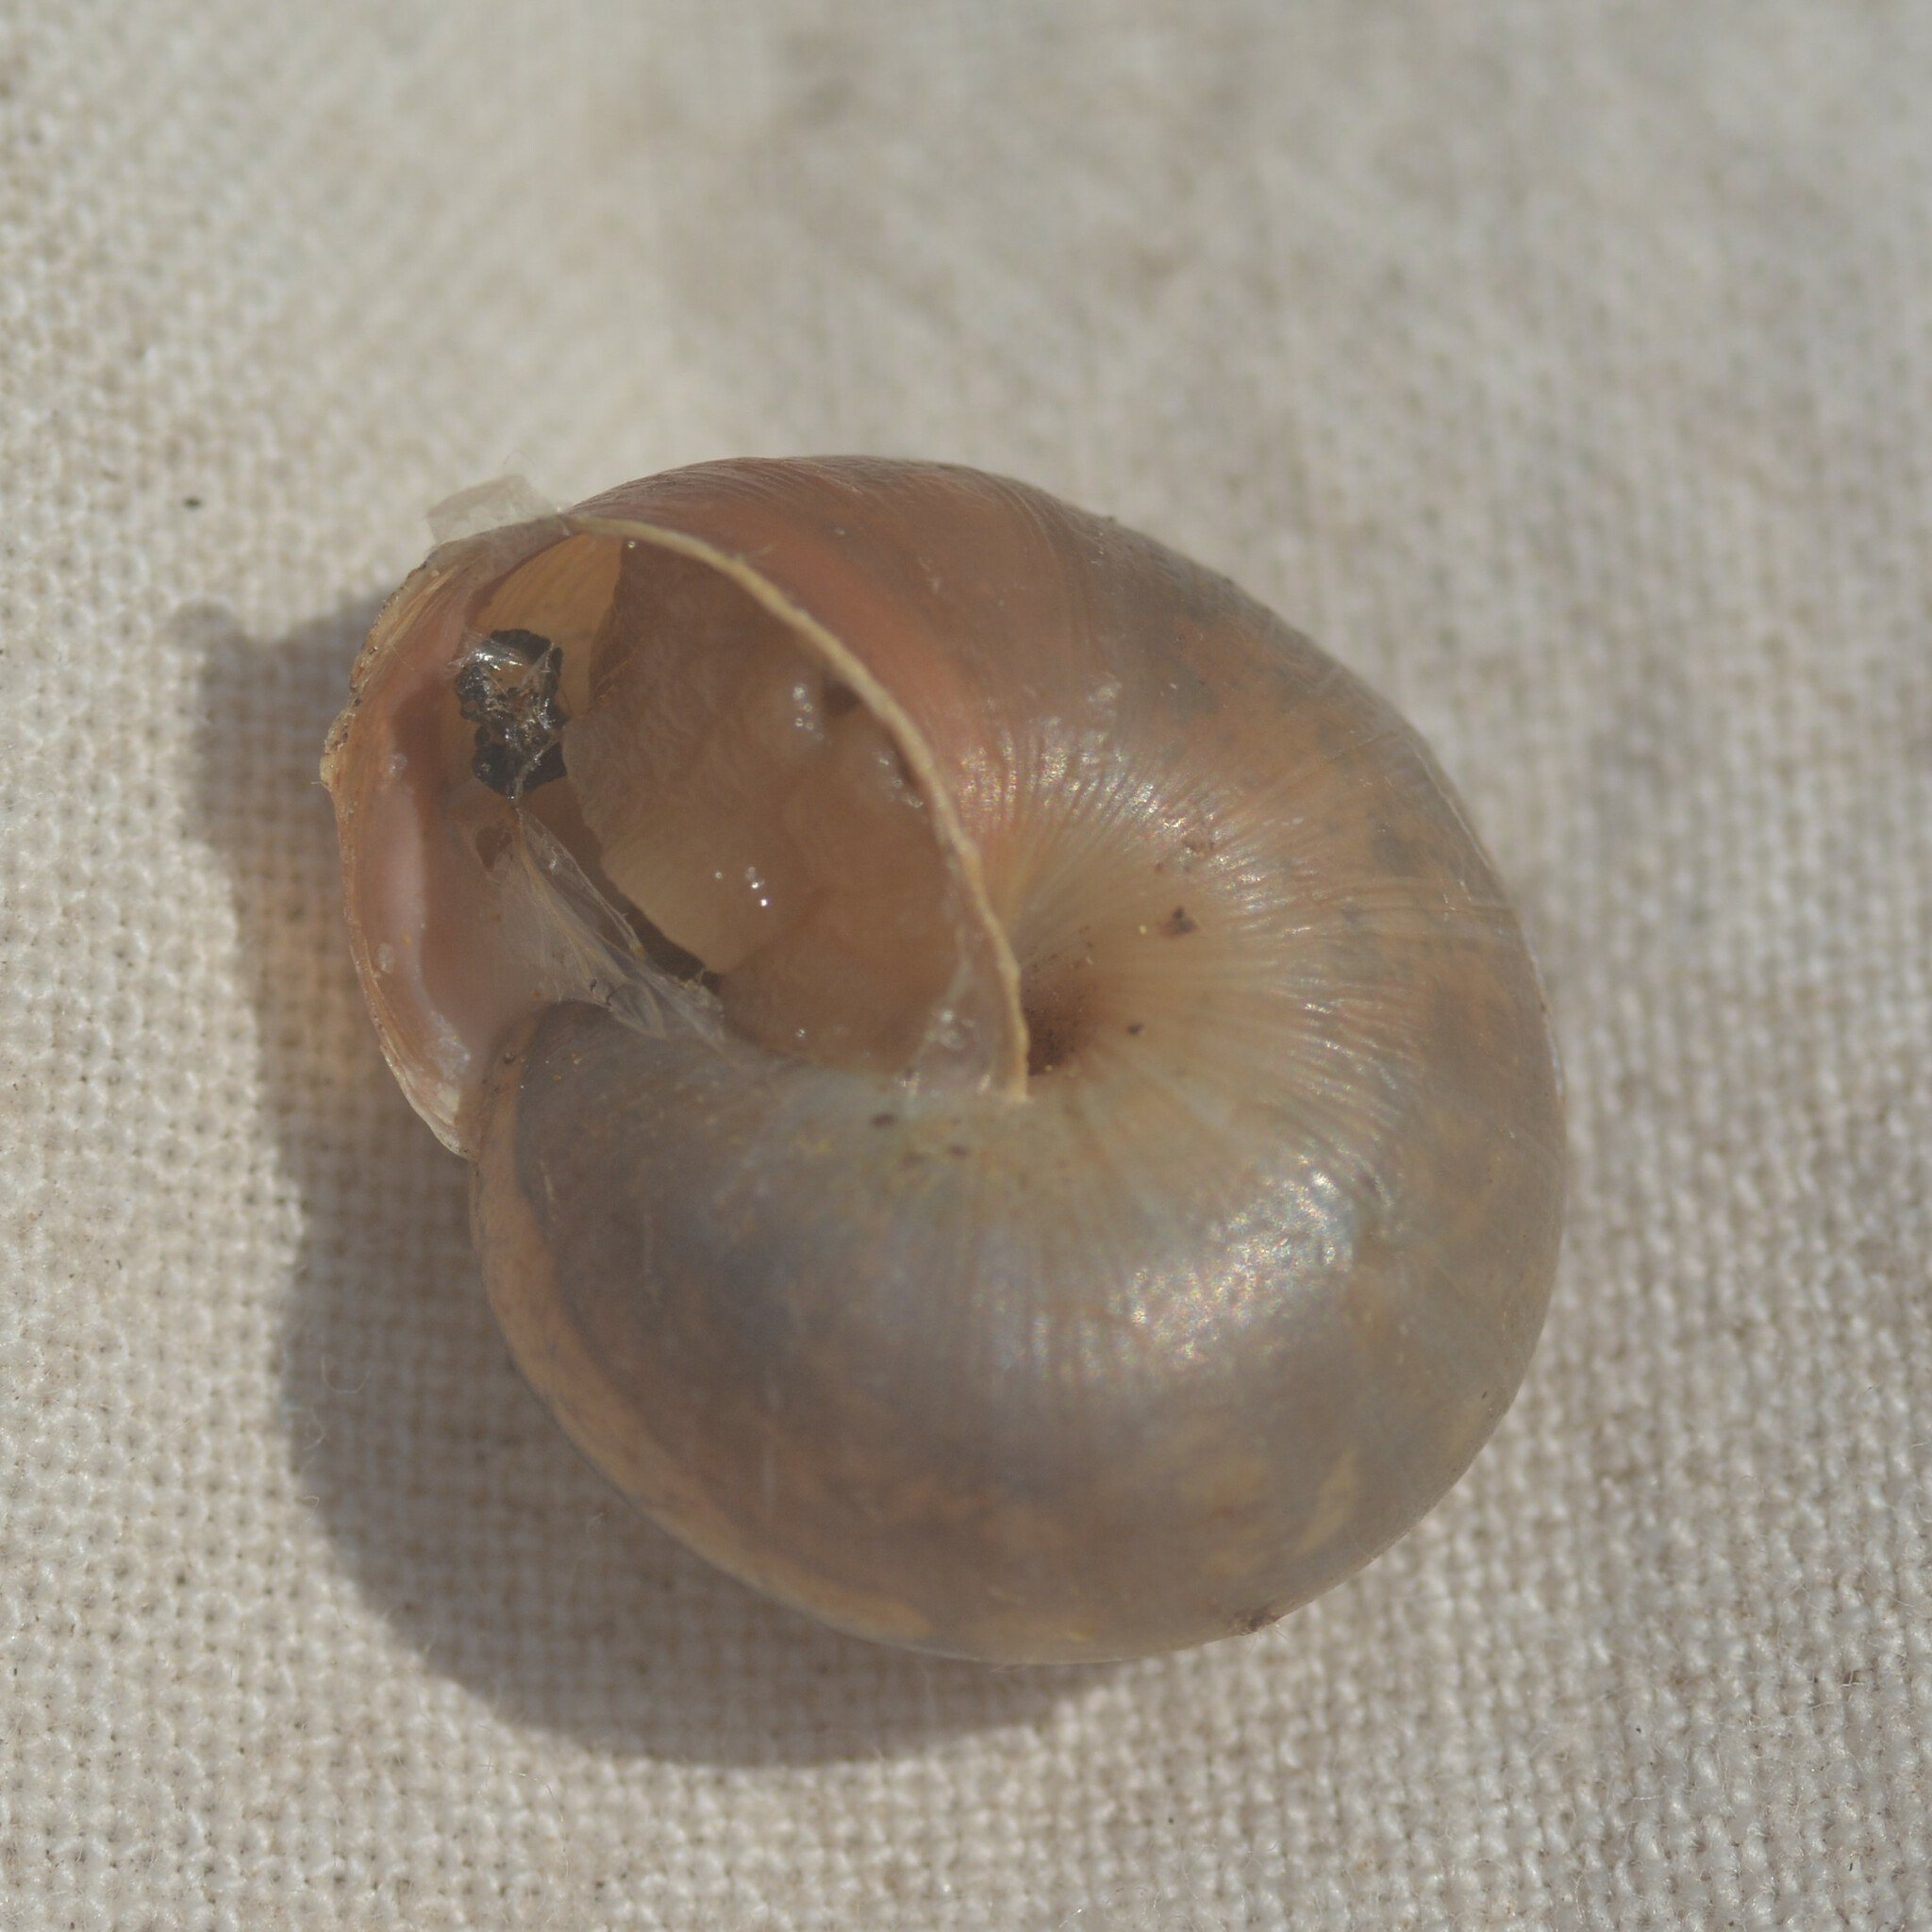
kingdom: Animalia
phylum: Mollusca
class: Gastropoda
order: Stylommatophora
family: Hygromiidae
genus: Monacha
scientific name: Monacha cantiana
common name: Kentish snail
